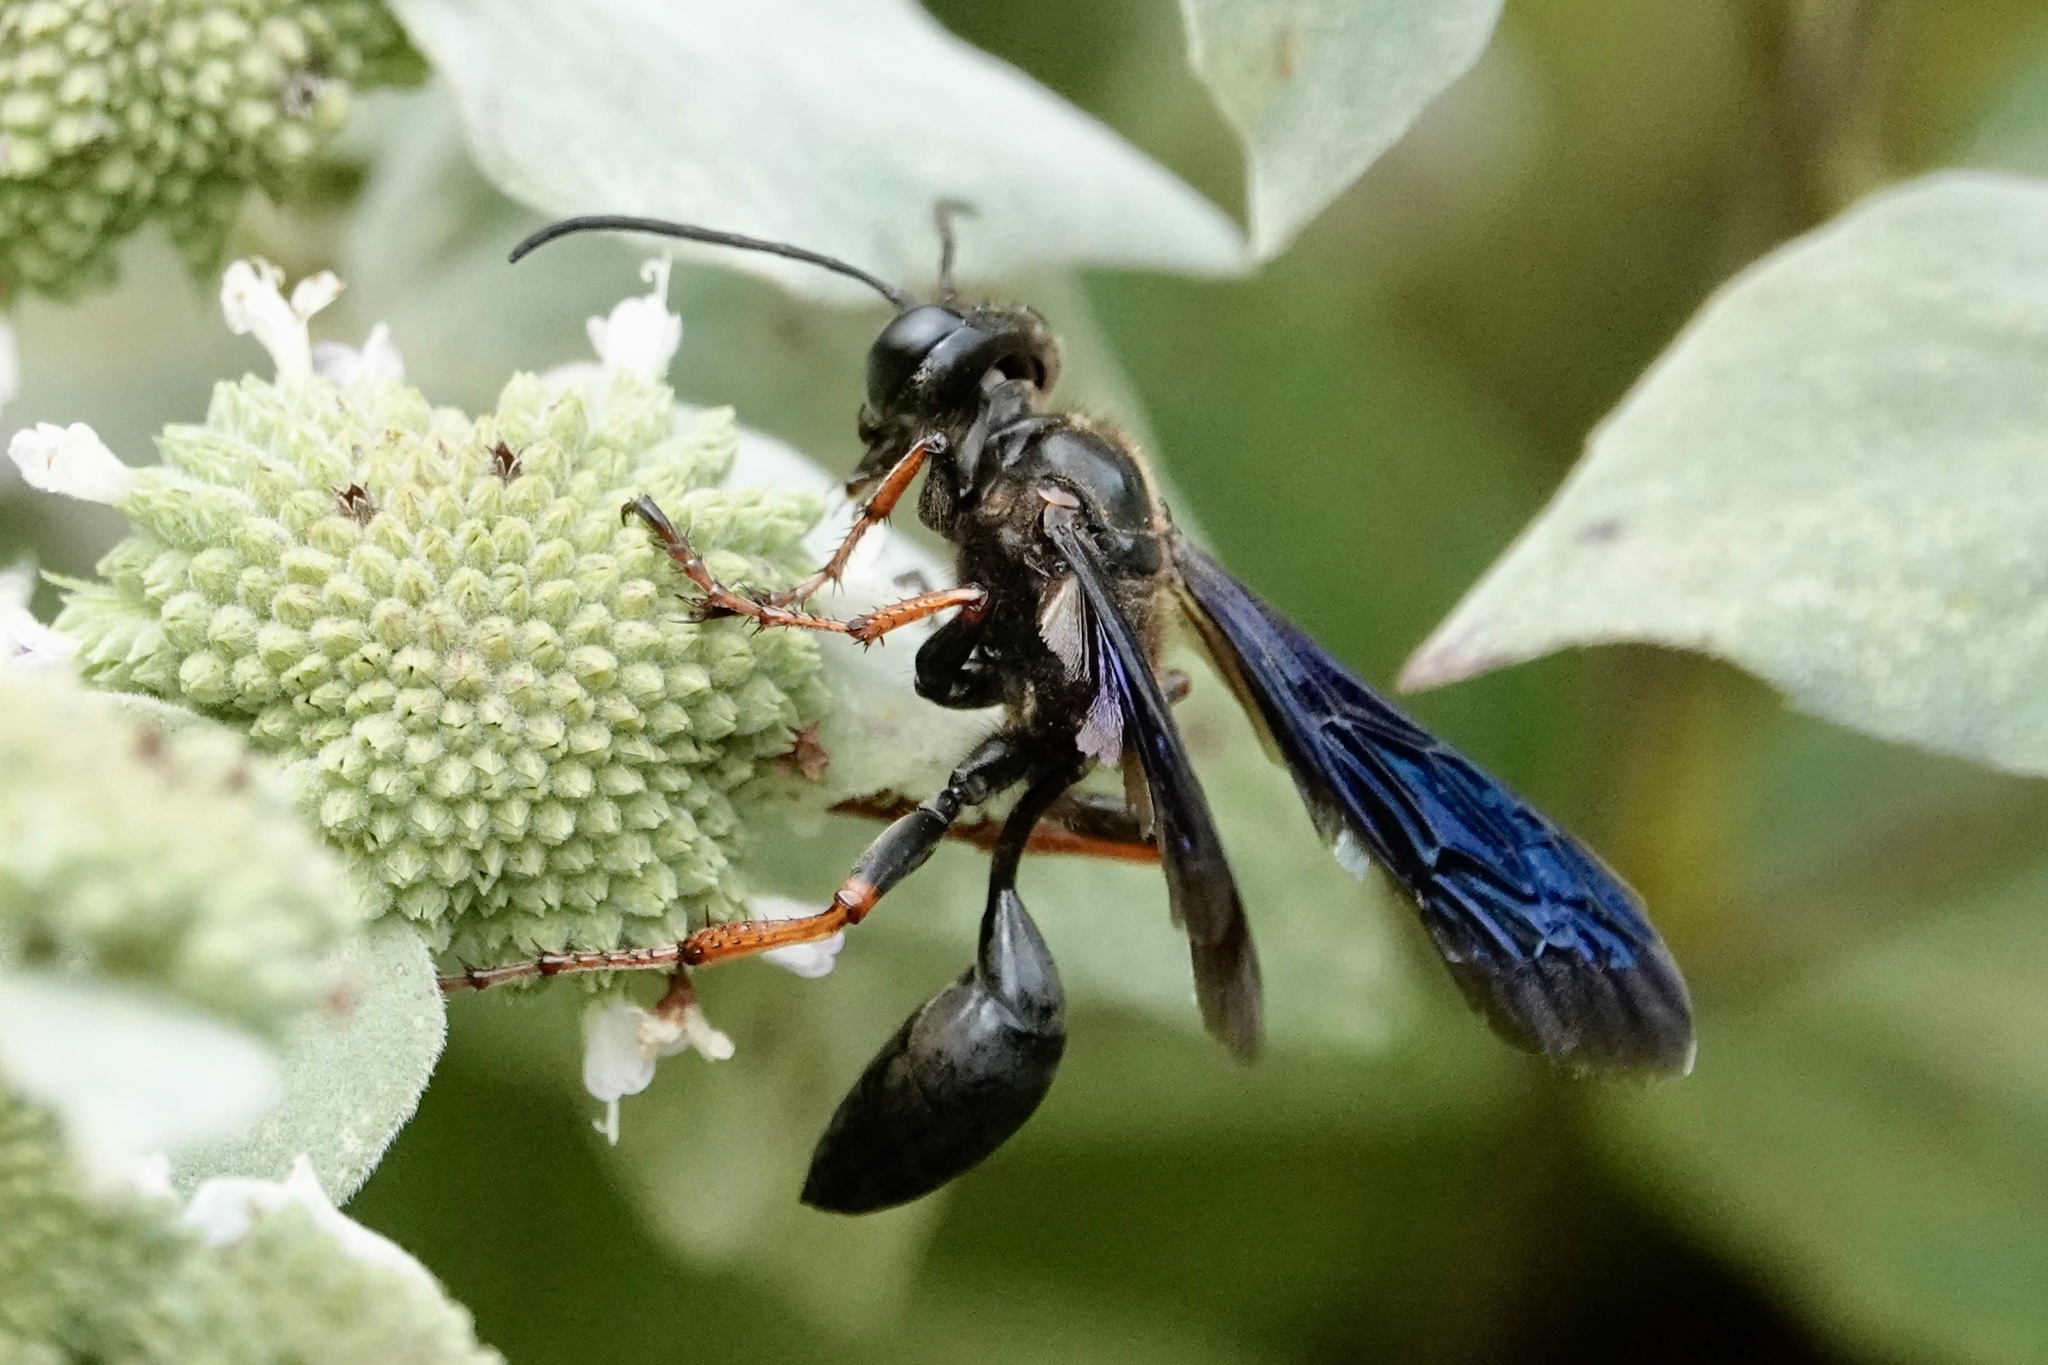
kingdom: Animalia
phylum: Arthropoda
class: Insecta
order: Hymenoptera
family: Sphecidae
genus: Isodontia
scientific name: Isodontia auripes
